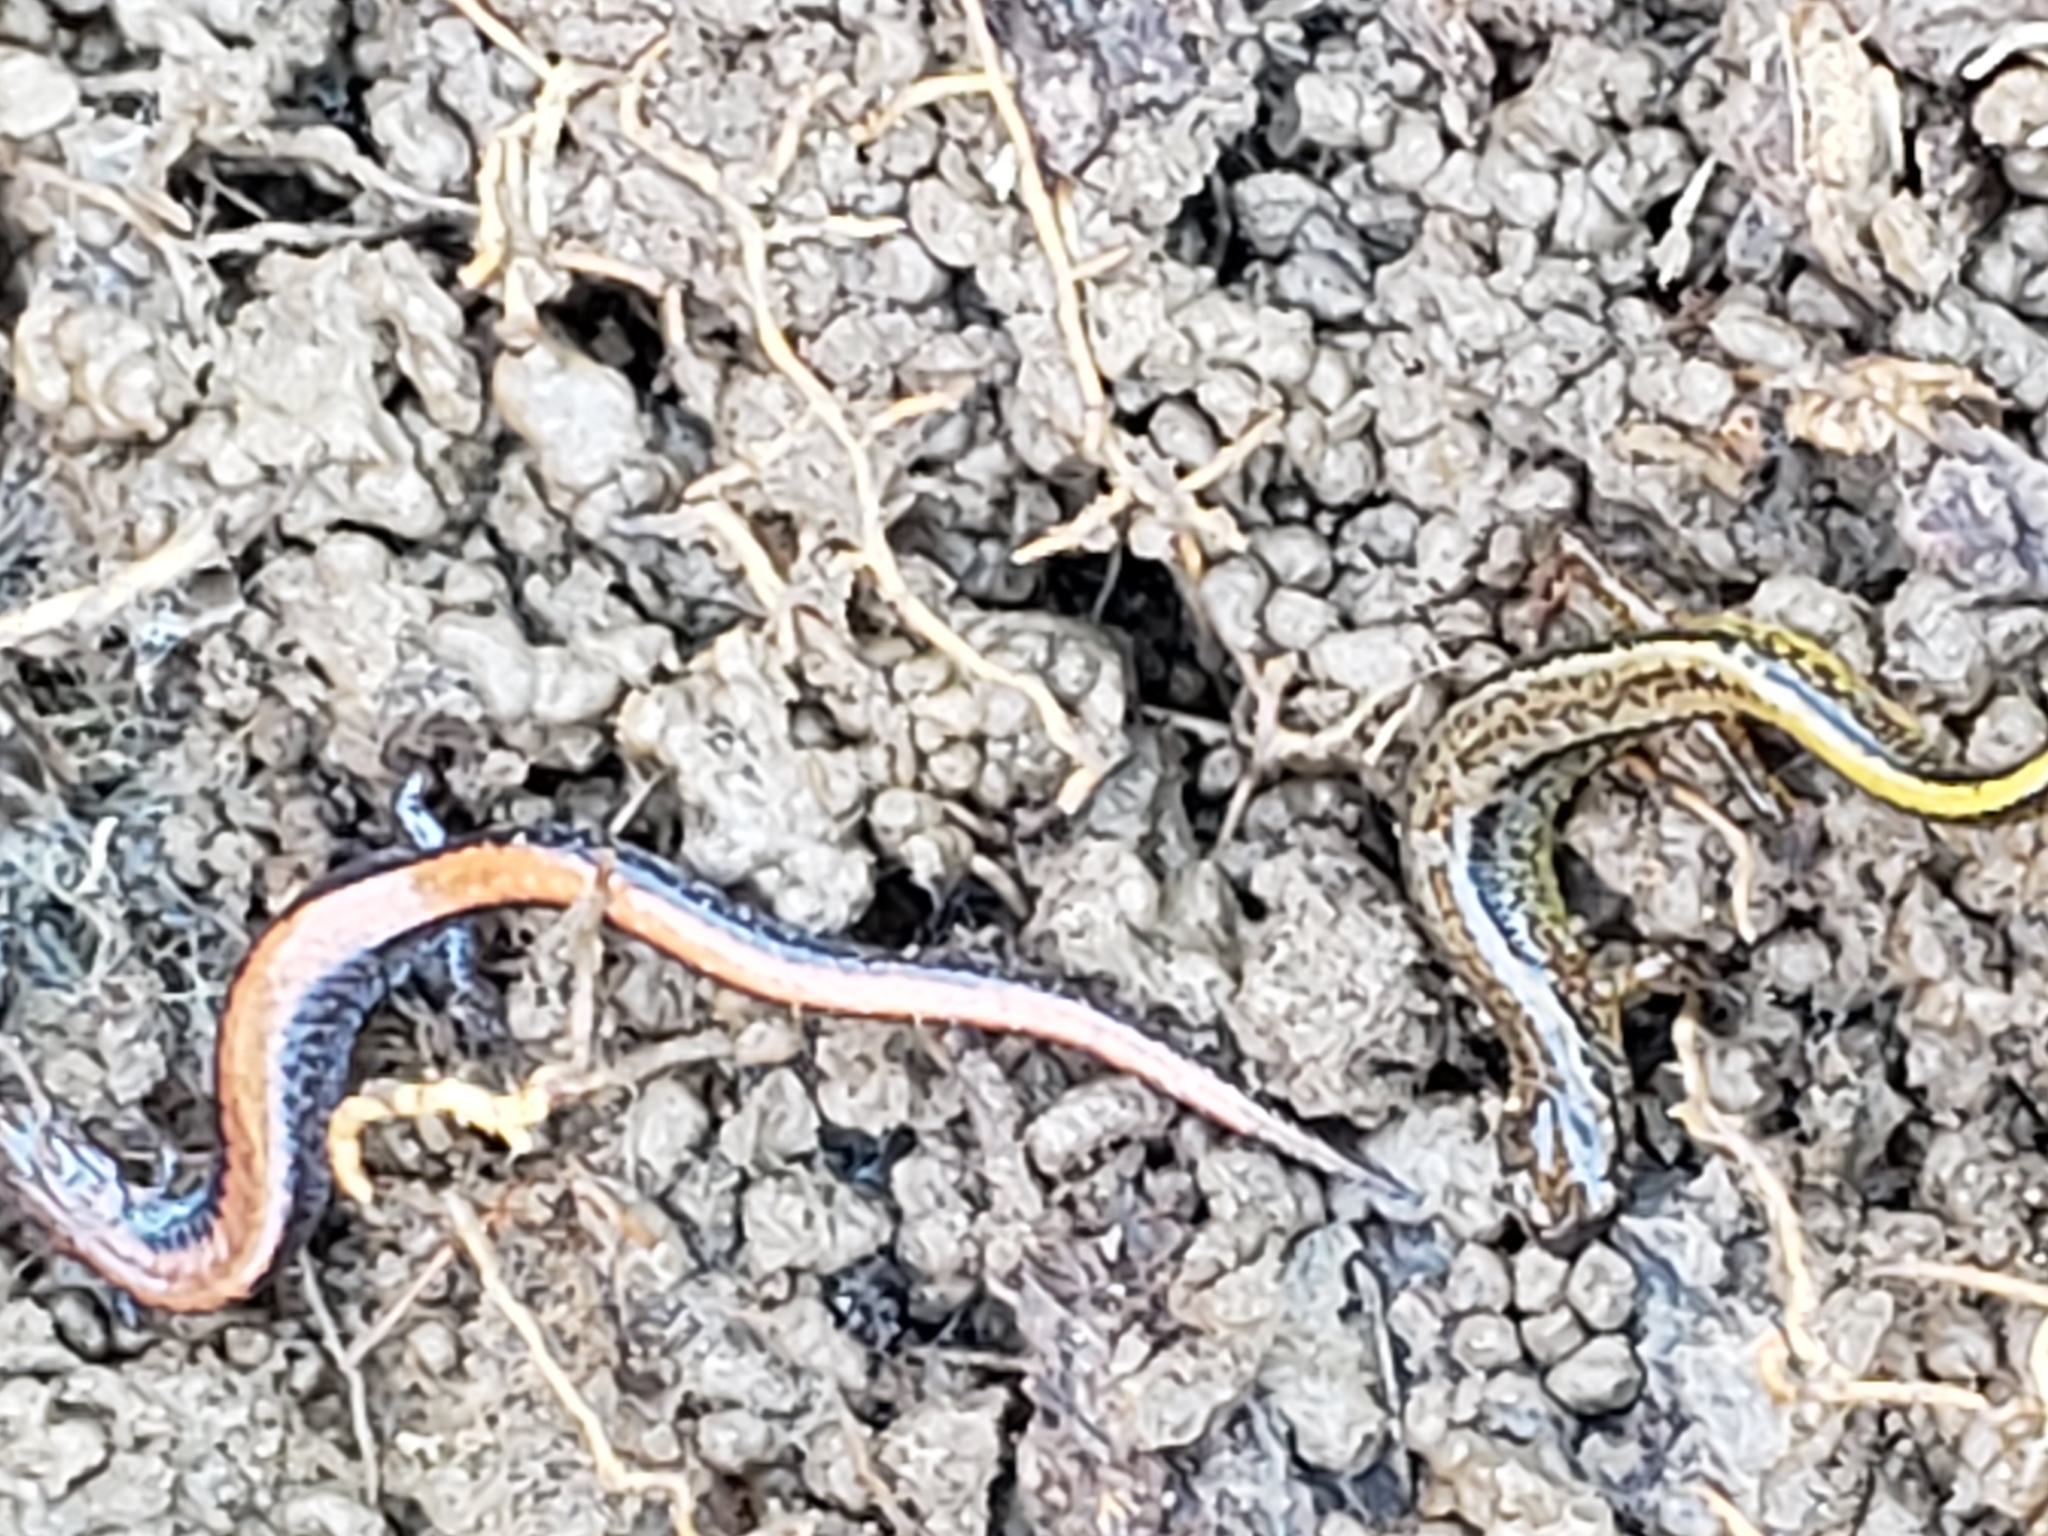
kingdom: Animalia
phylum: Chordata
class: Amphibia
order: Caudata
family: Plethodontidae
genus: Plethodon
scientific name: Plethodon cinereus
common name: Redback salamander
